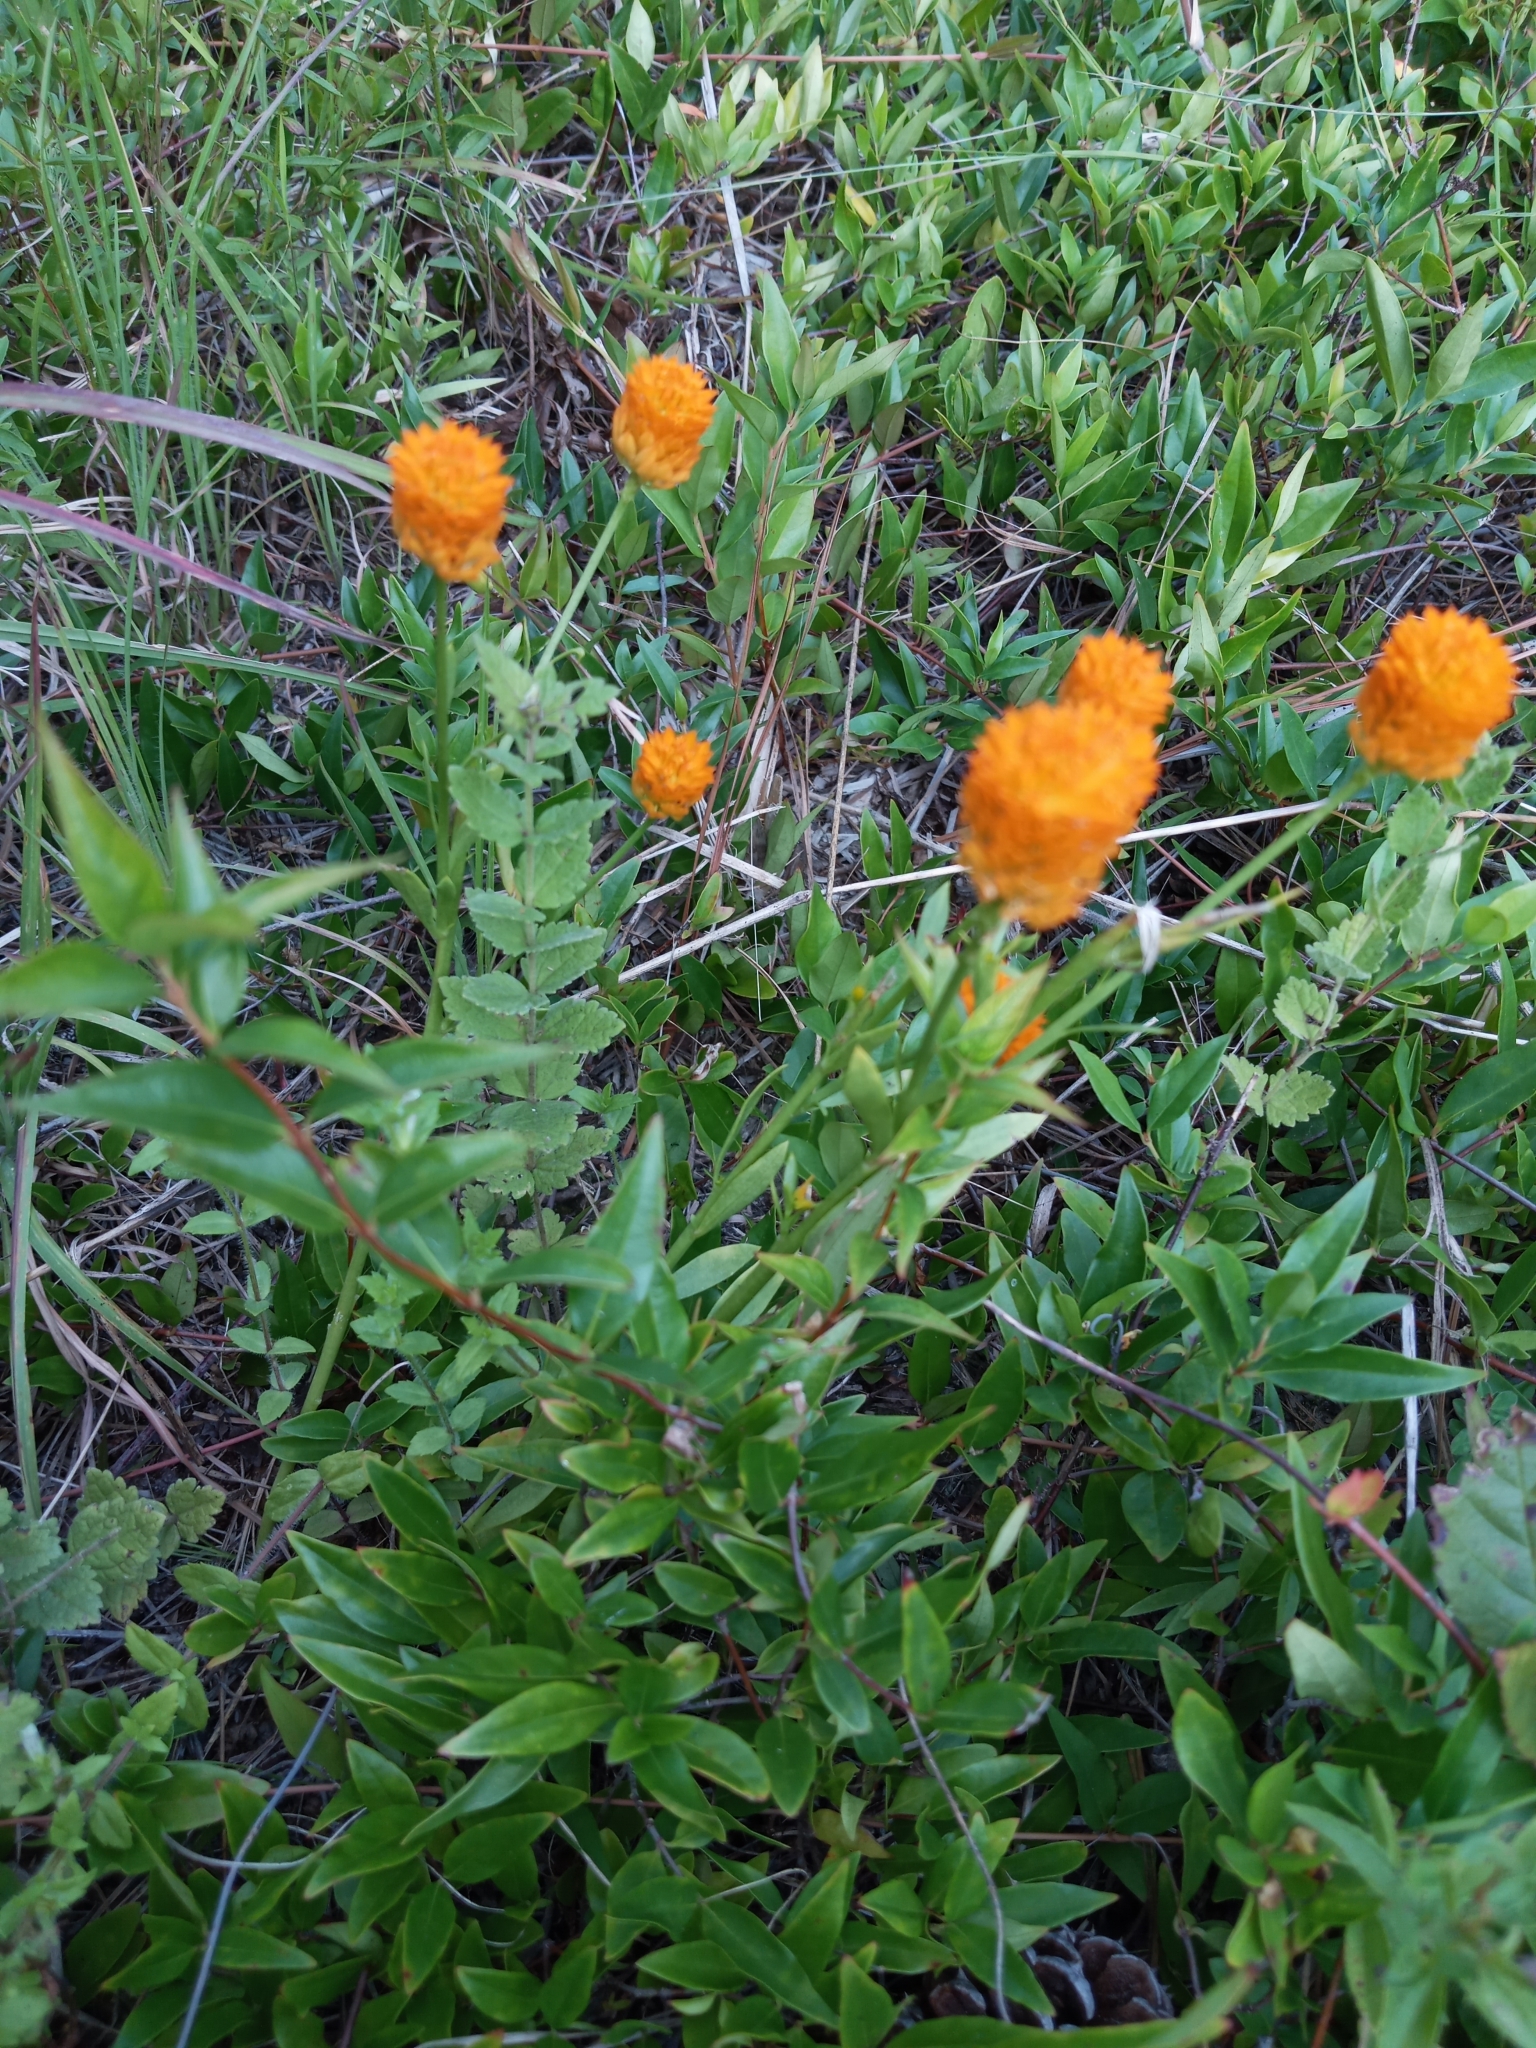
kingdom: Plantae
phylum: Tracheophyta
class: Magnoliopsida
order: Fabales
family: Polygalaceae
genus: Polygala
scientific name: Polygala lutea
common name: Orange milkwort
